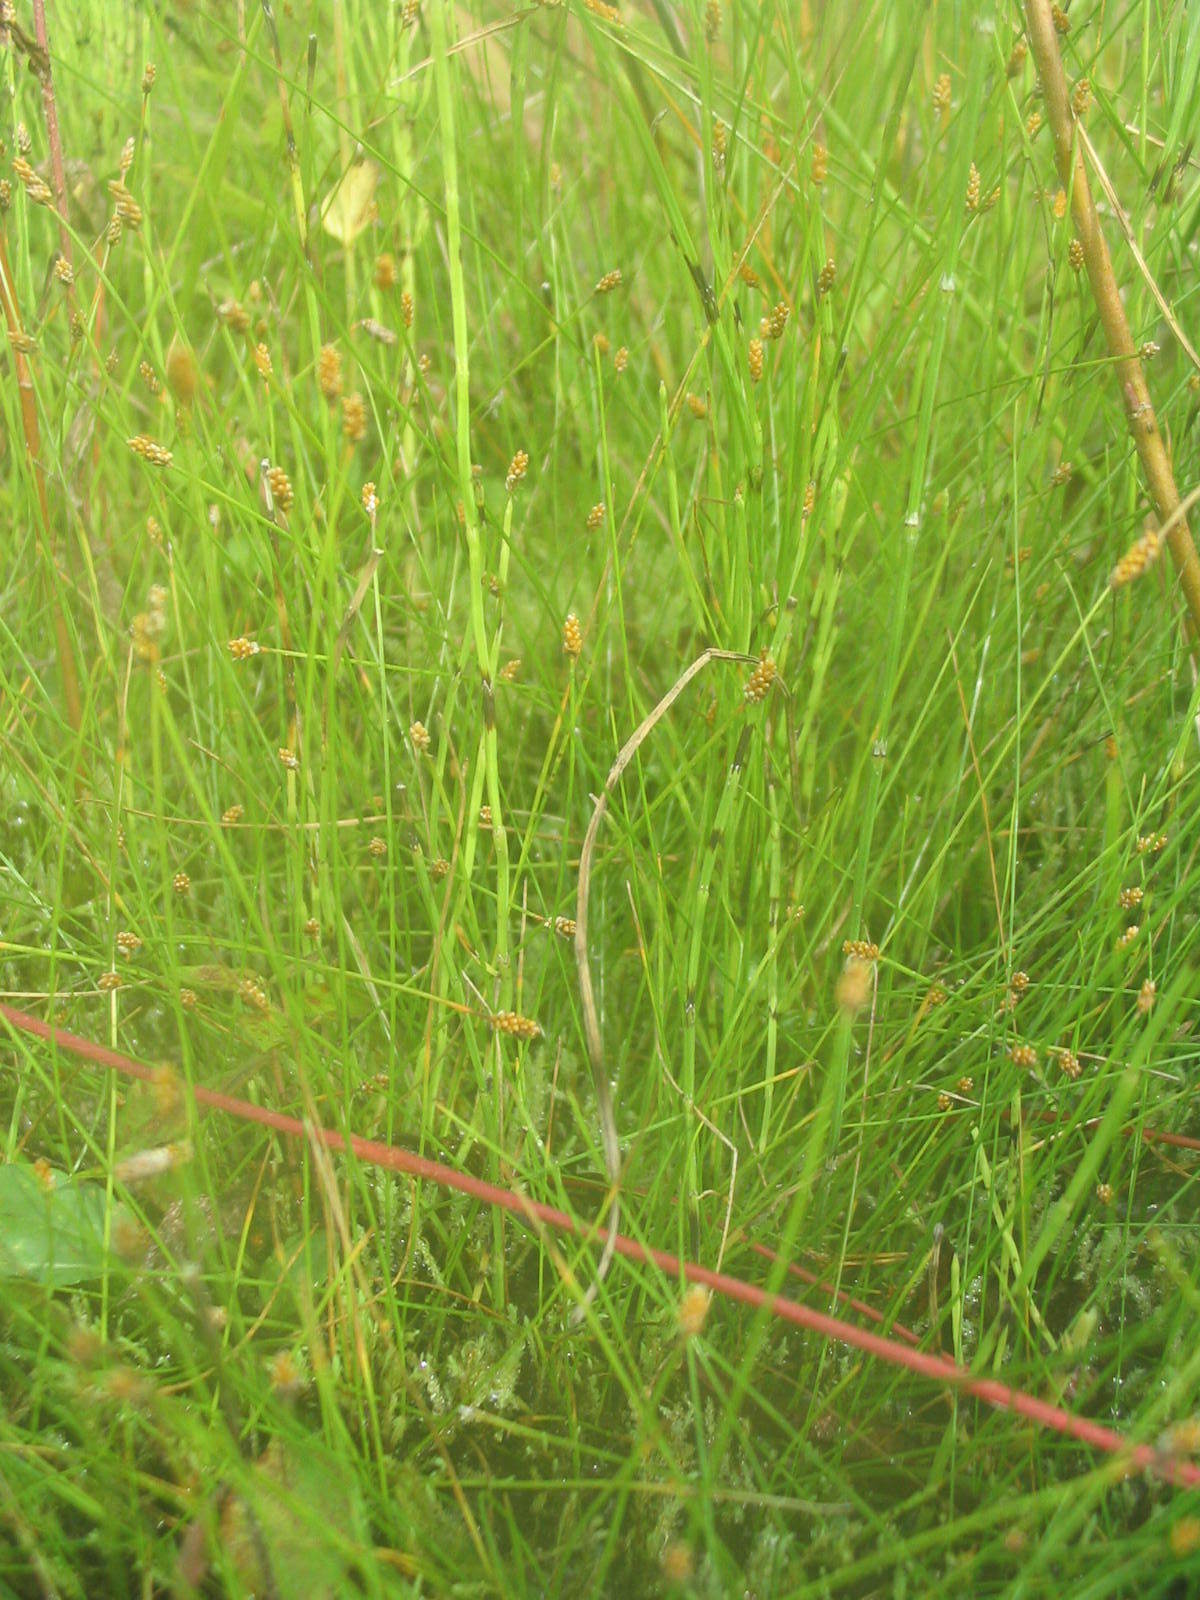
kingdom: Plantae
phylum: Tracheophyta
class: Liliopsida
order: Poales
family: Cyperaceae
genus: Eleocharis
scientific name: Eleocharis nitida
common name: Neat spikerush
